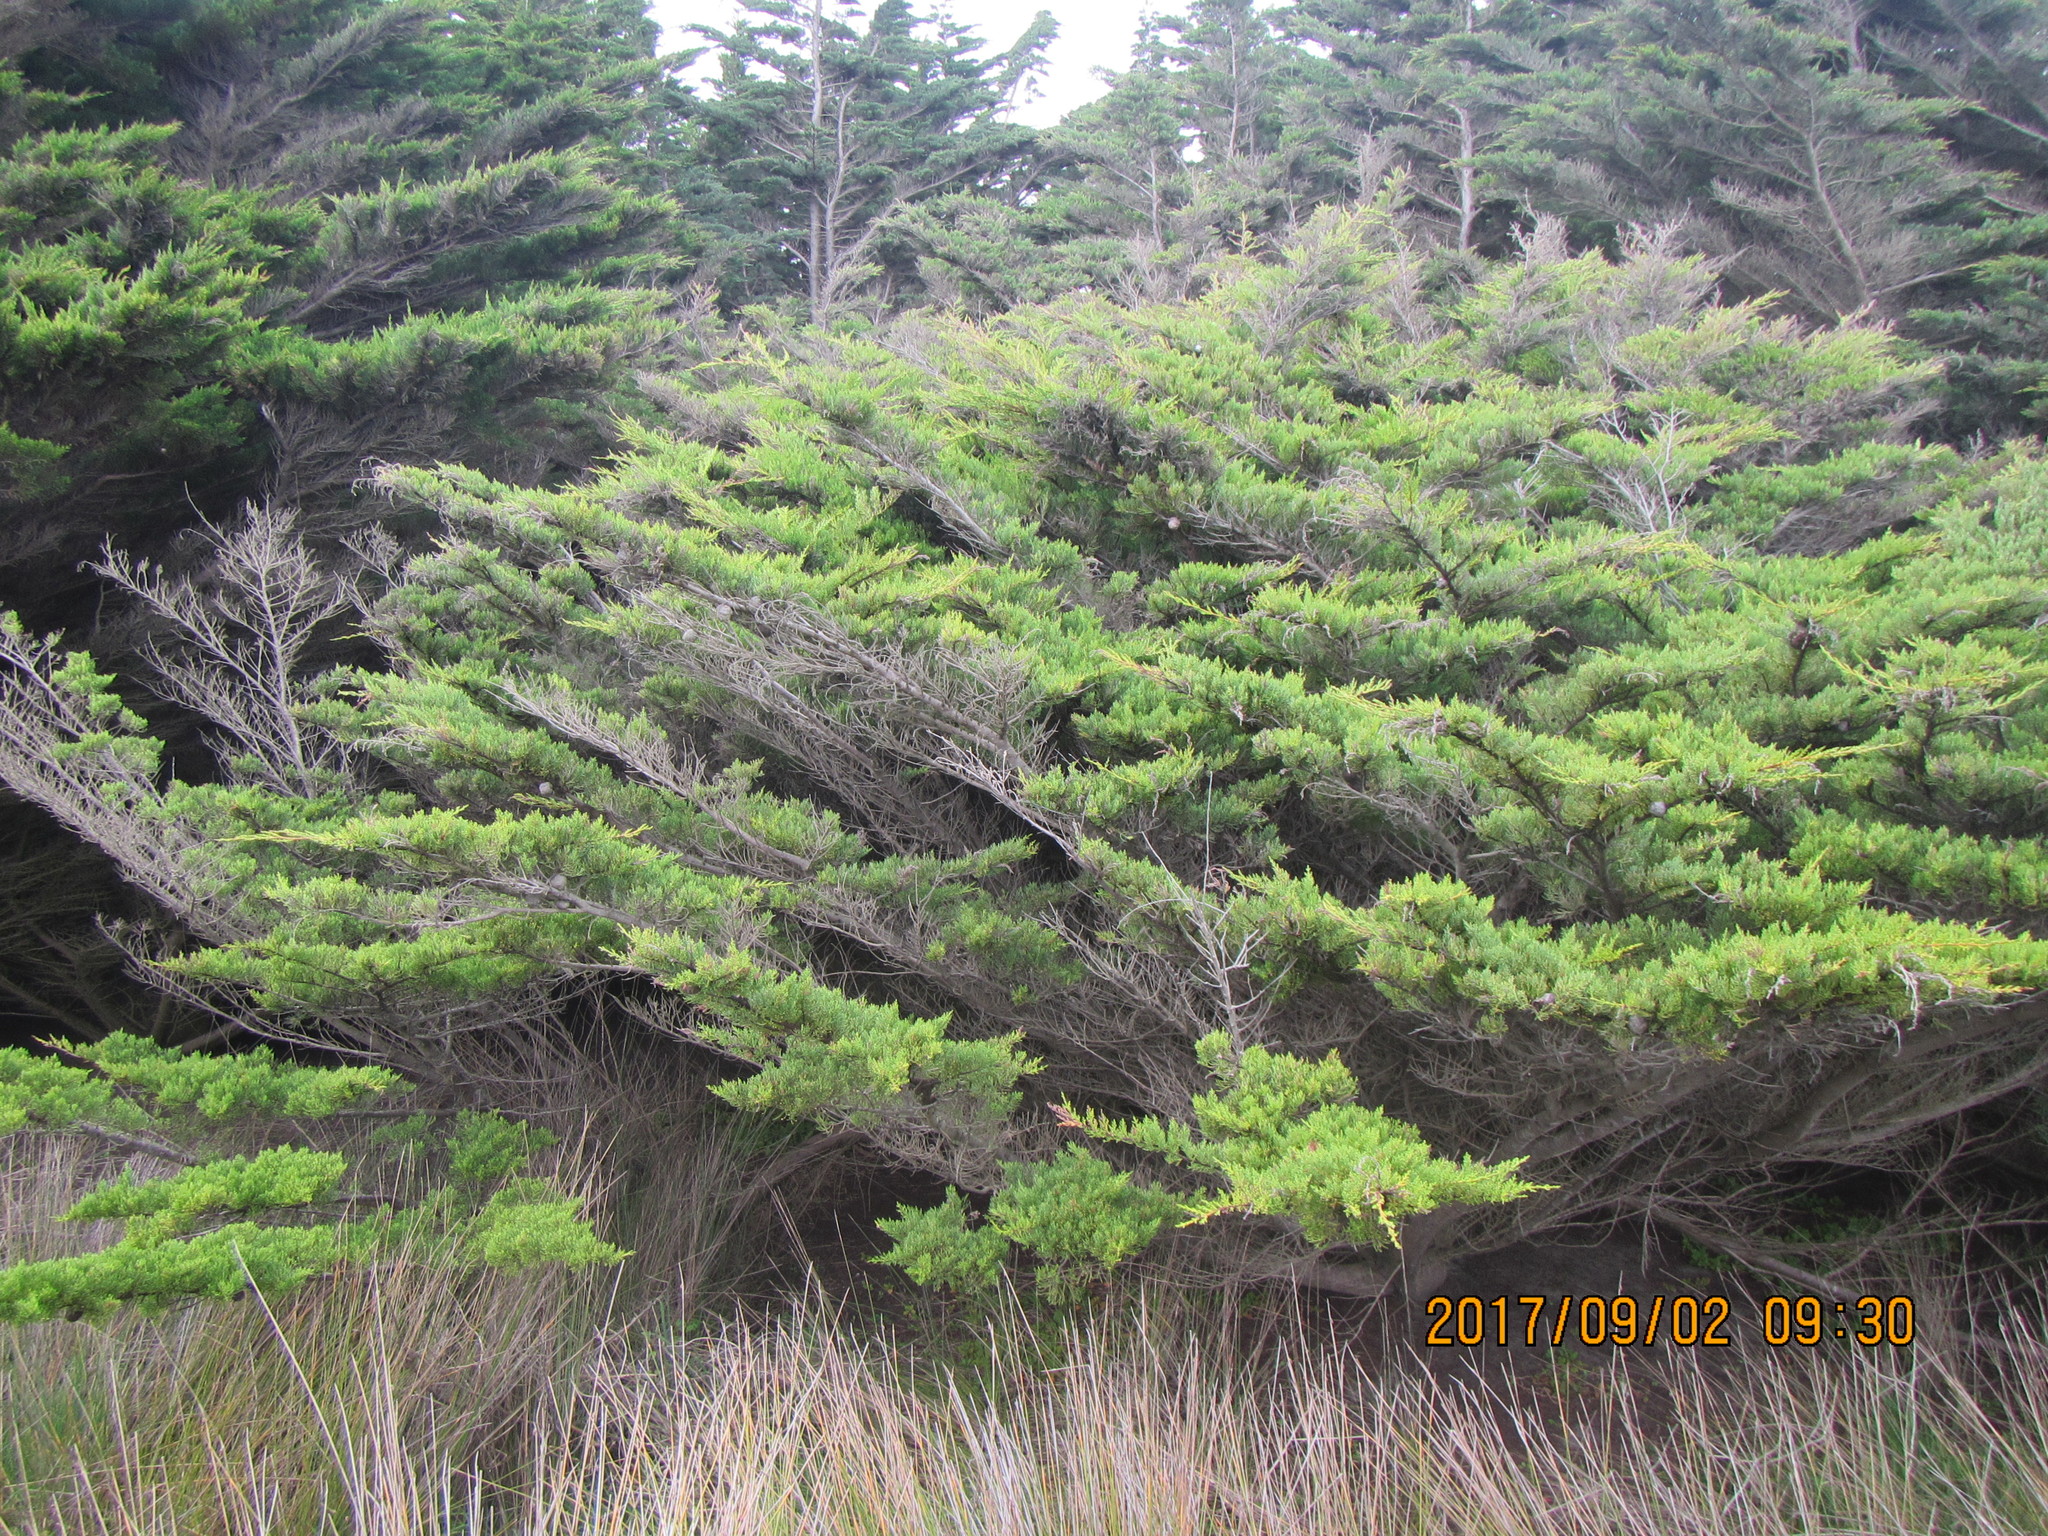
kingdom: Plantae
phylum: Tracheophyta
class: Pinopsida
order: Pinales
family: Cupressaceae
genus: Cupressus
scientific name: Cupressus macrocarpa
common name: Monterey cypress
